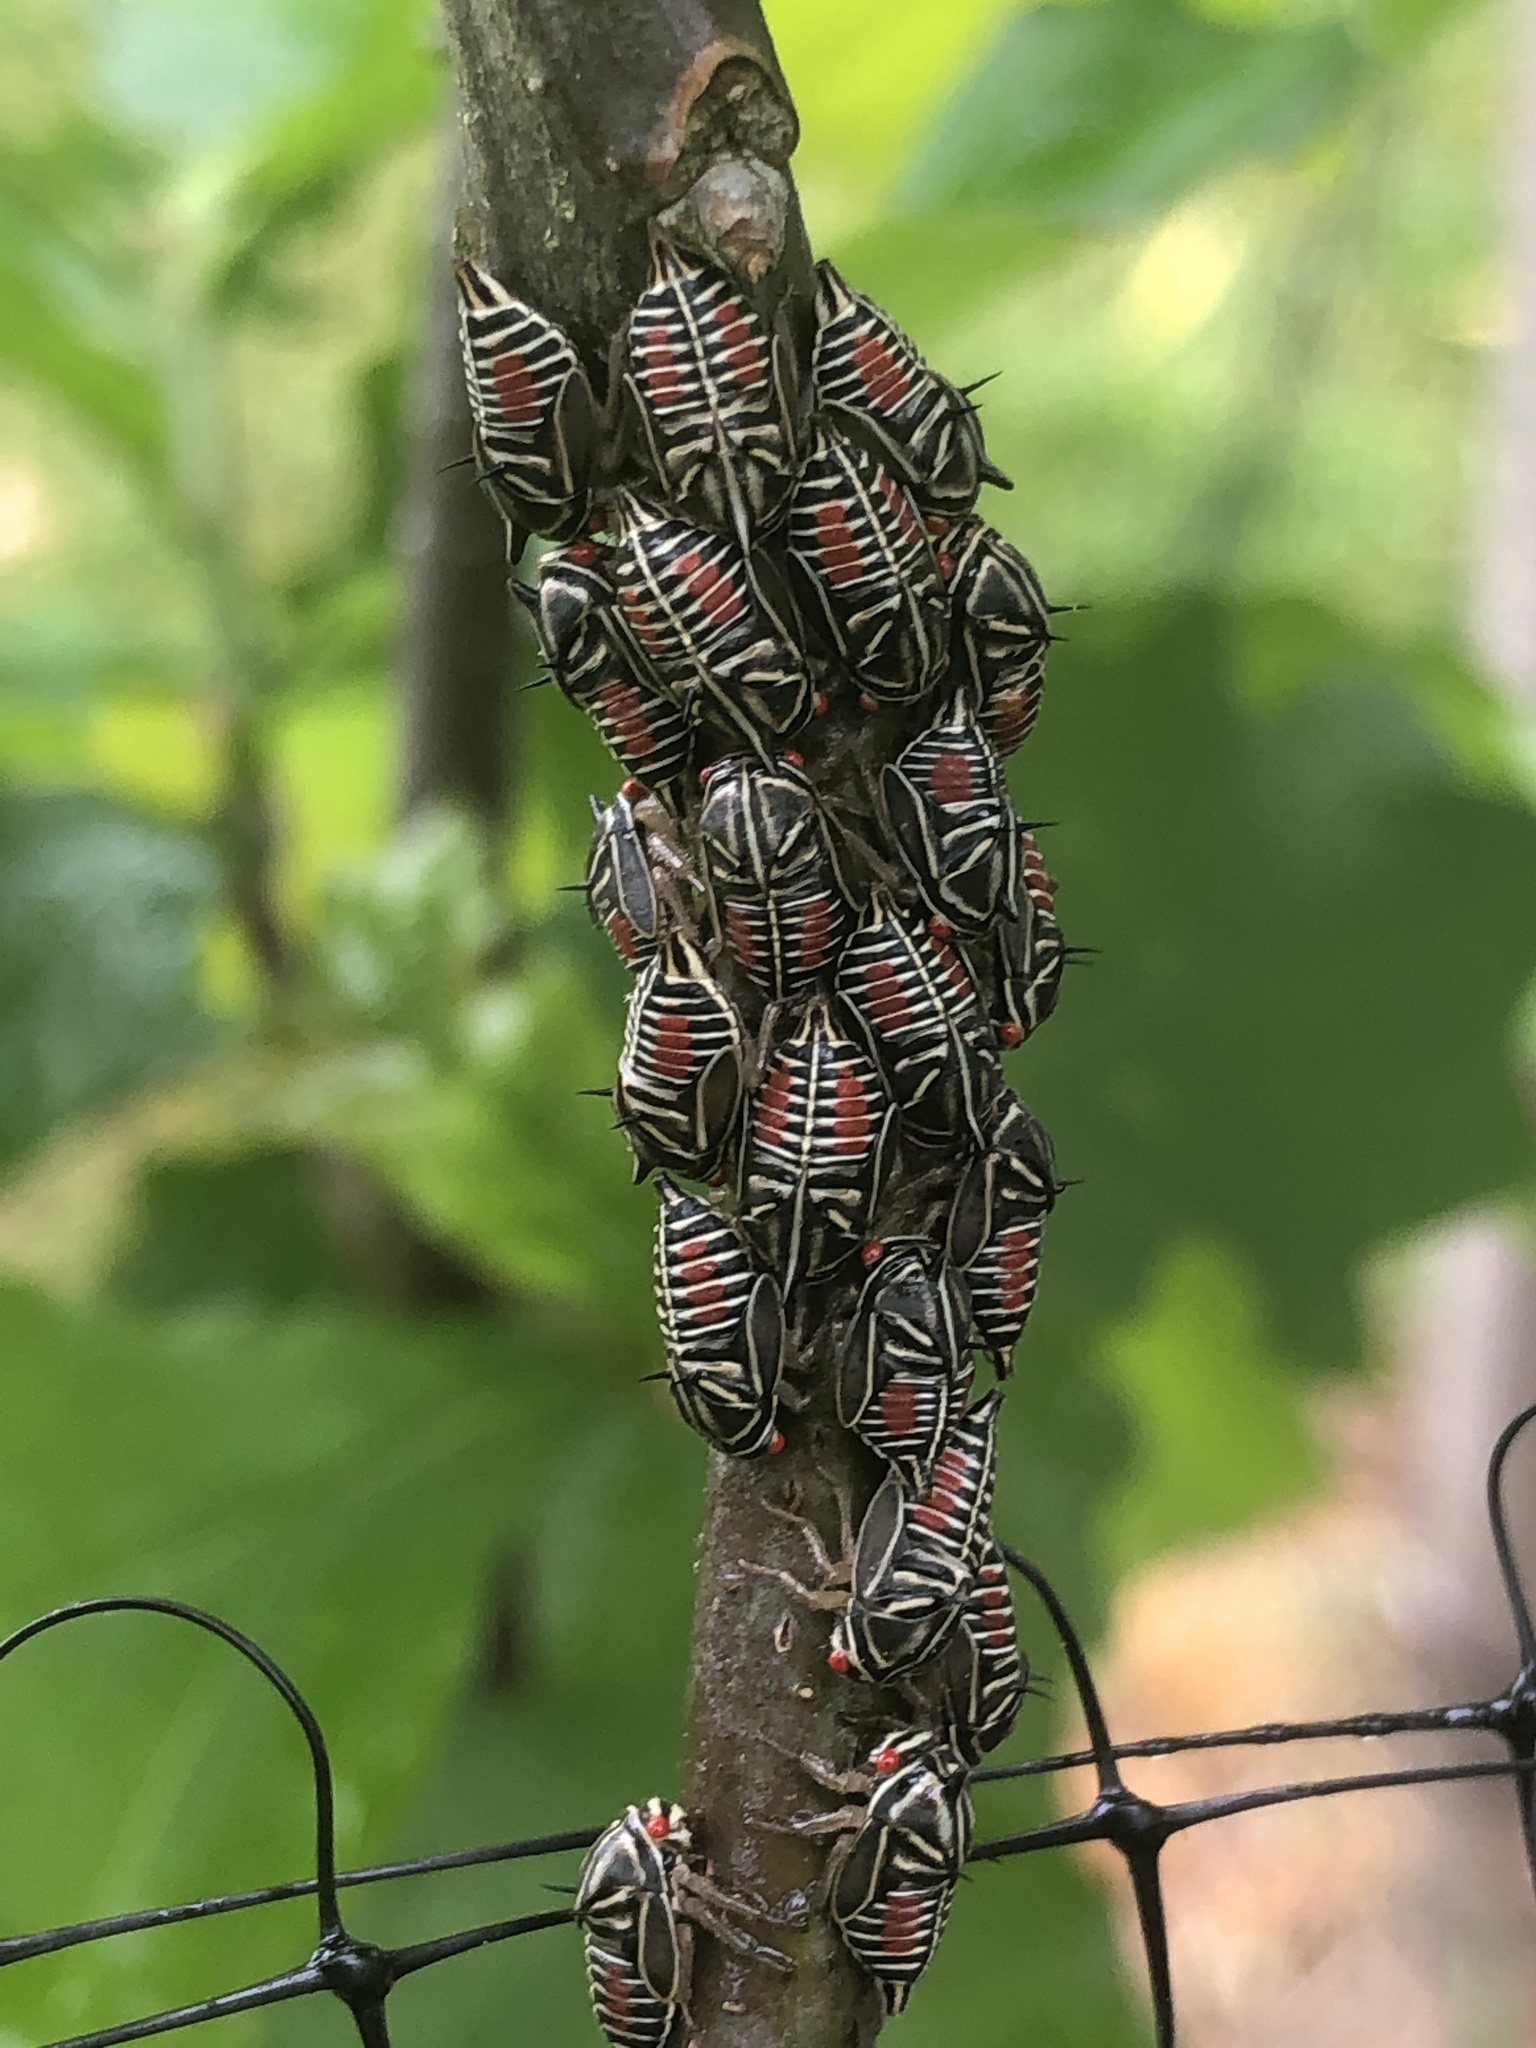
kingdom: Animalia
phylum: Arthropoda
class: Insecta
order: Hemiptera
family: Membracidae
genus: Platycotis
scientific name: Platycotis vittatus
